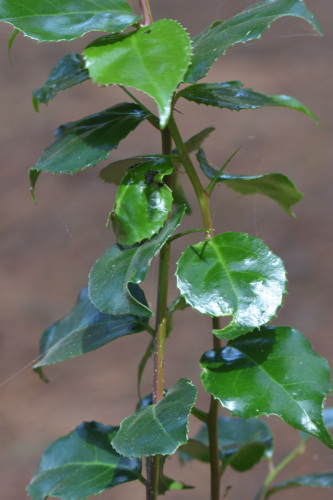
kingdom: Plantae
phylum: Tracheophyta
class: Magnoliopsida
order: Malpighiales
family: Salicaceae
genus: Scolopia
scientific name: Scolopia mundii
